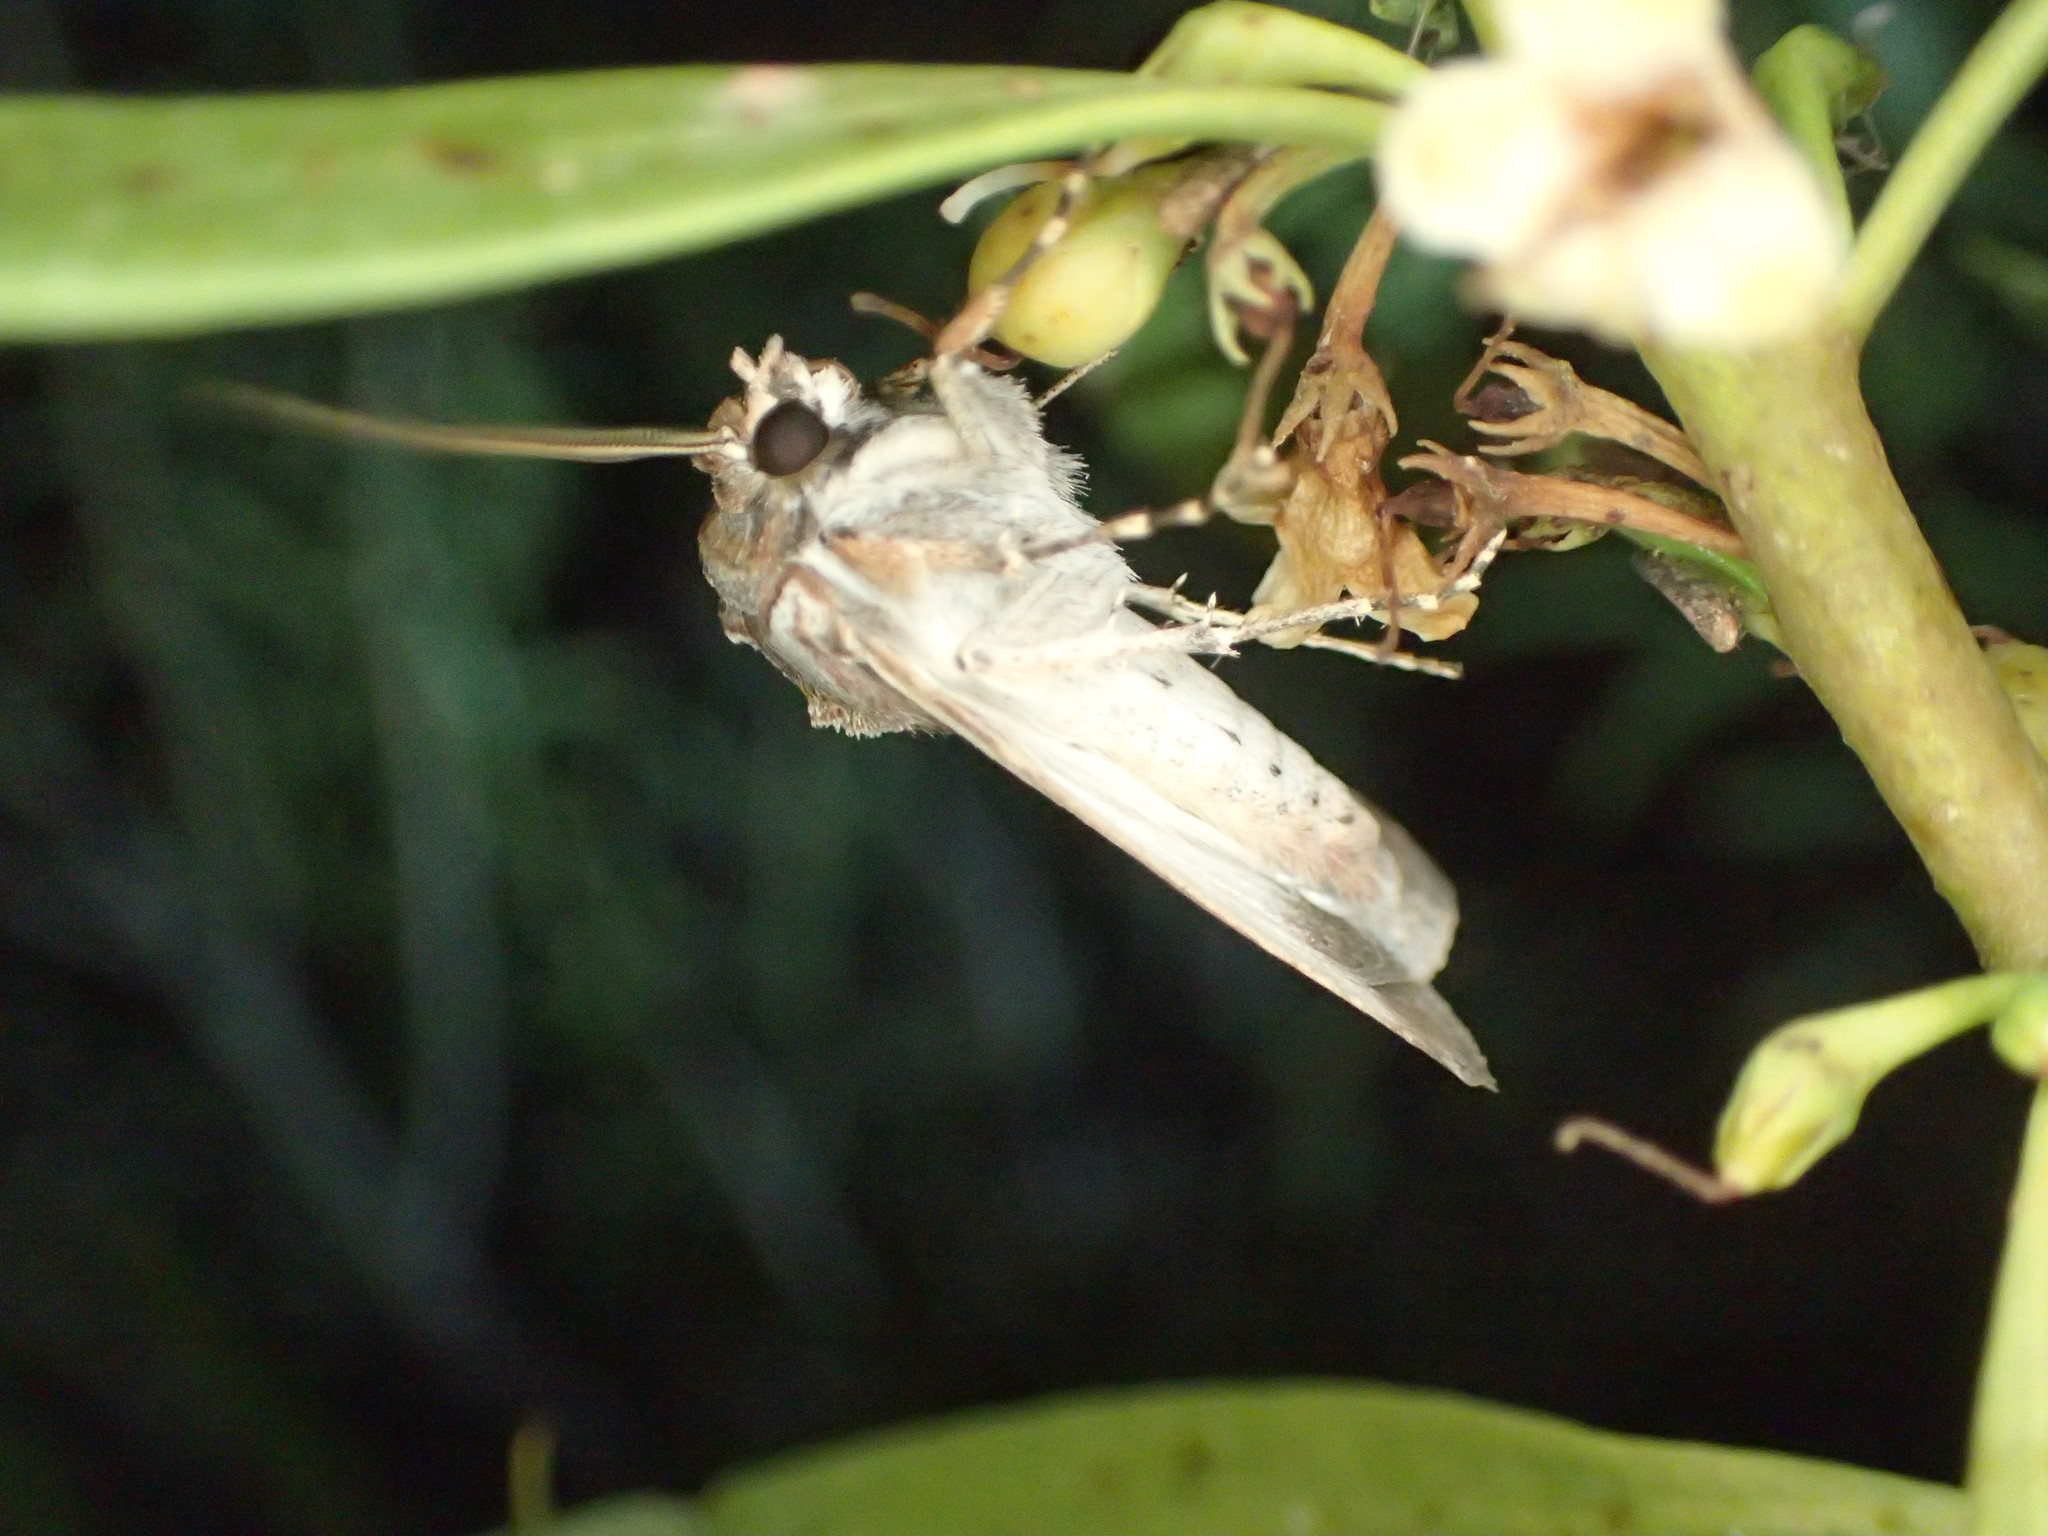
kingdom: Animalia
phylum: Arthropoda
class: Insecta
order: Lepidoptera
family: Nolidae
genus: Earias
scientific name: Earias paralella
